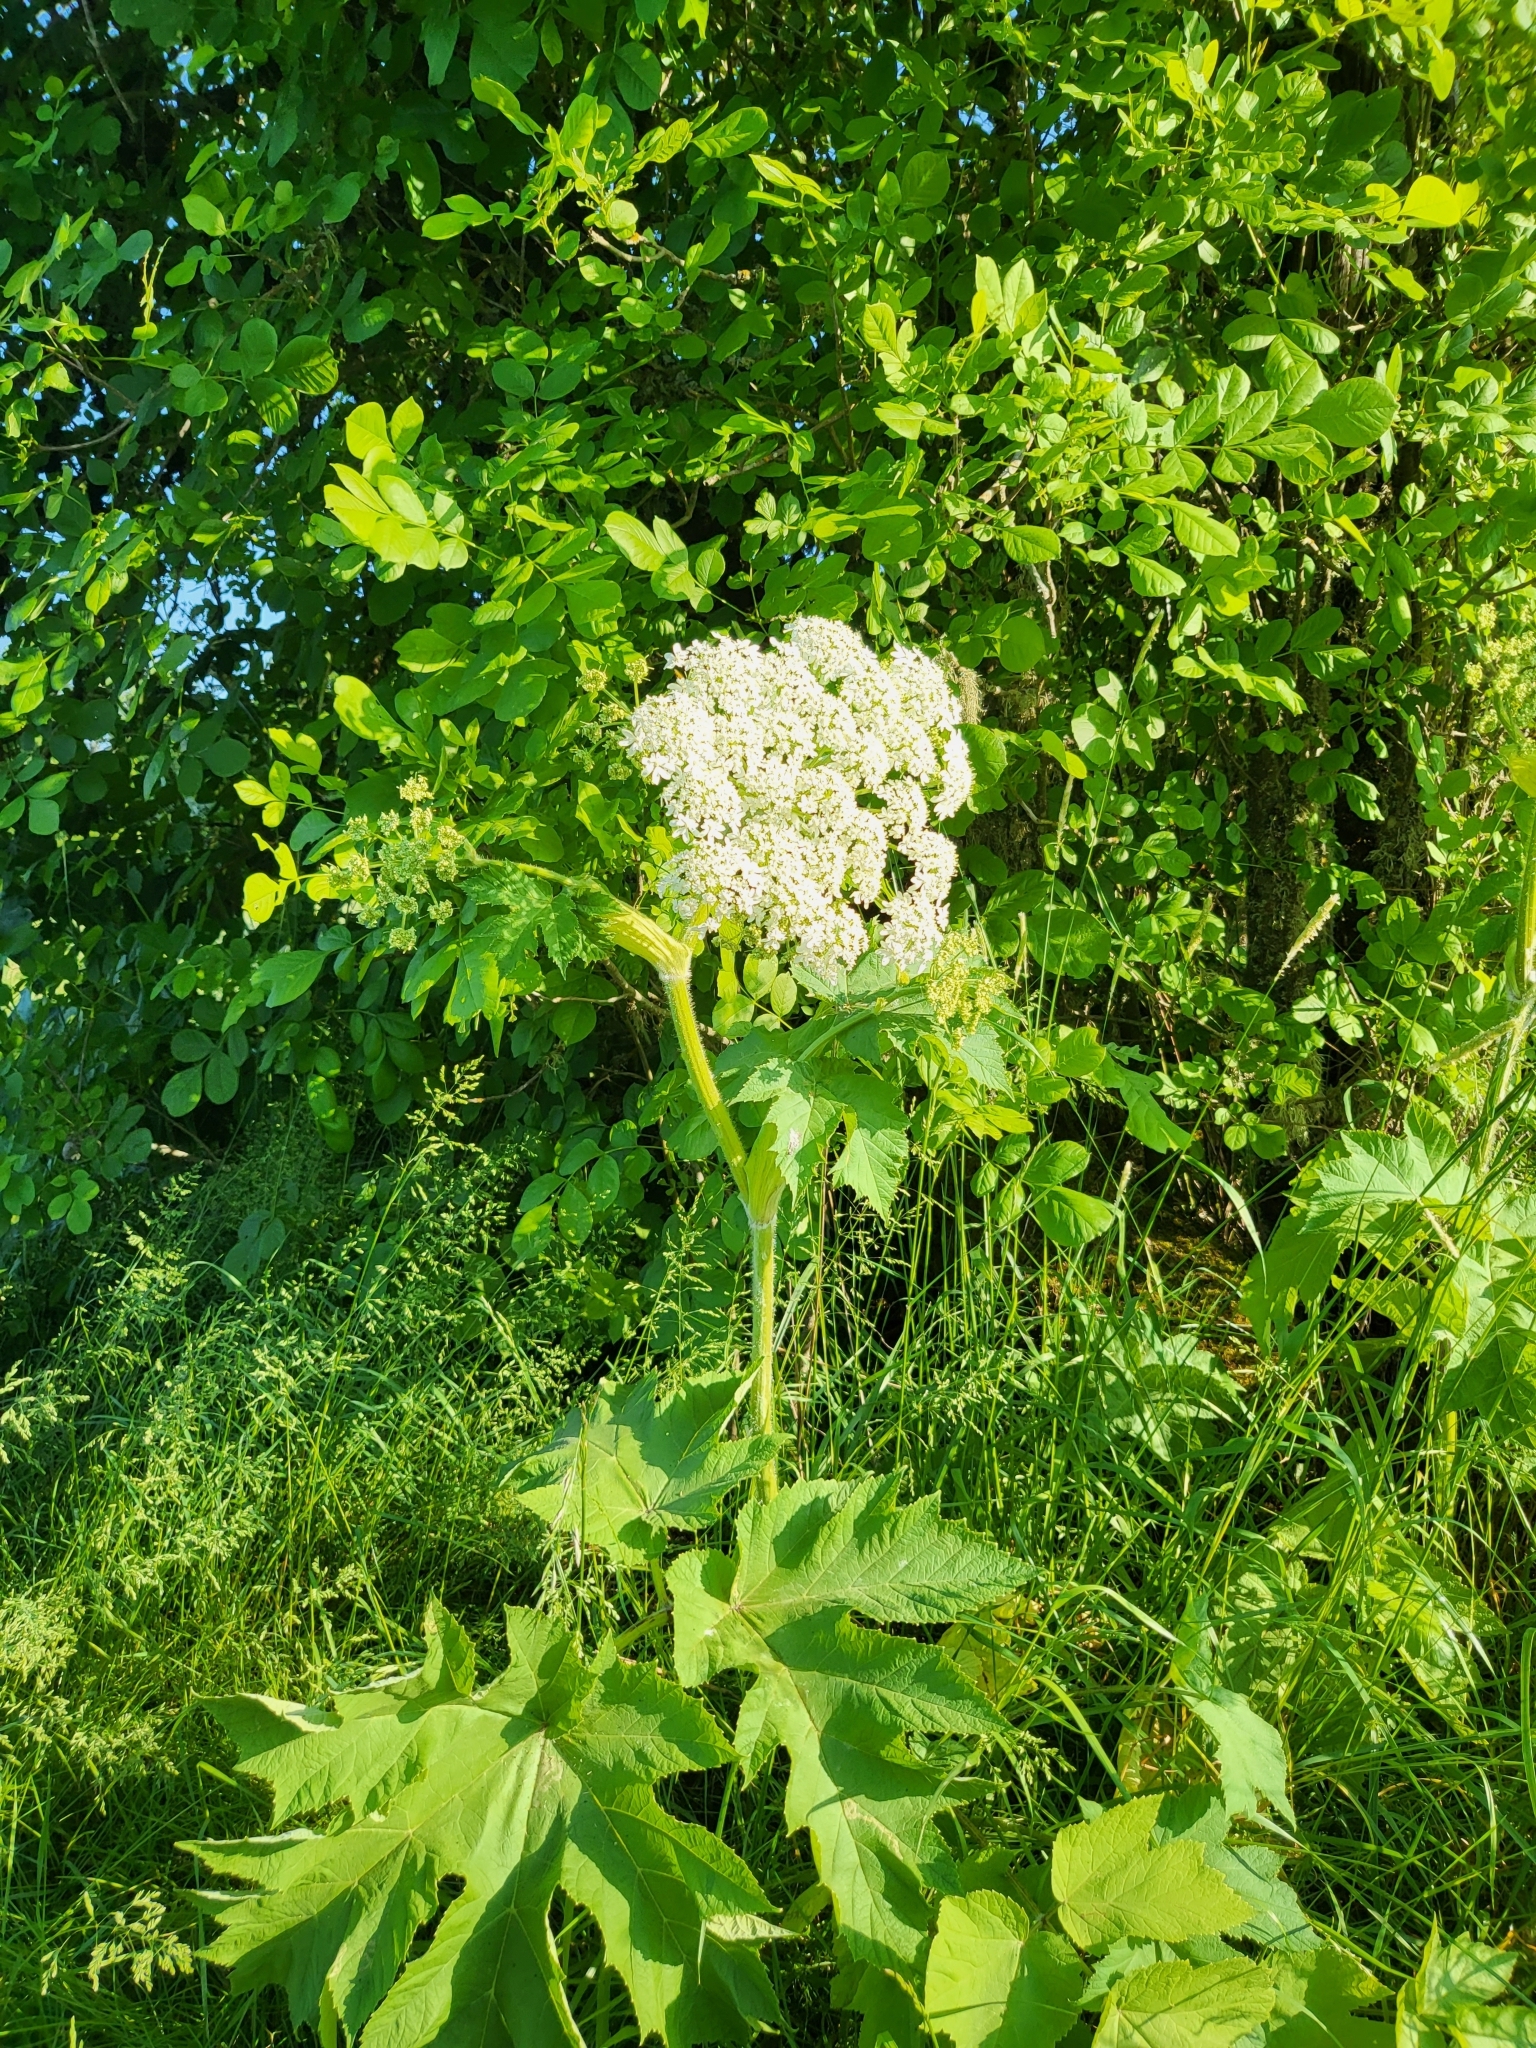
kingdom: Plantae
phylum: Tracheophyta
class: Magnoliopsida
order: Apiales
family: Apiaceae
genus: Heracleum
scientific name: Heracleum maximum
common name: American cow parsnip
